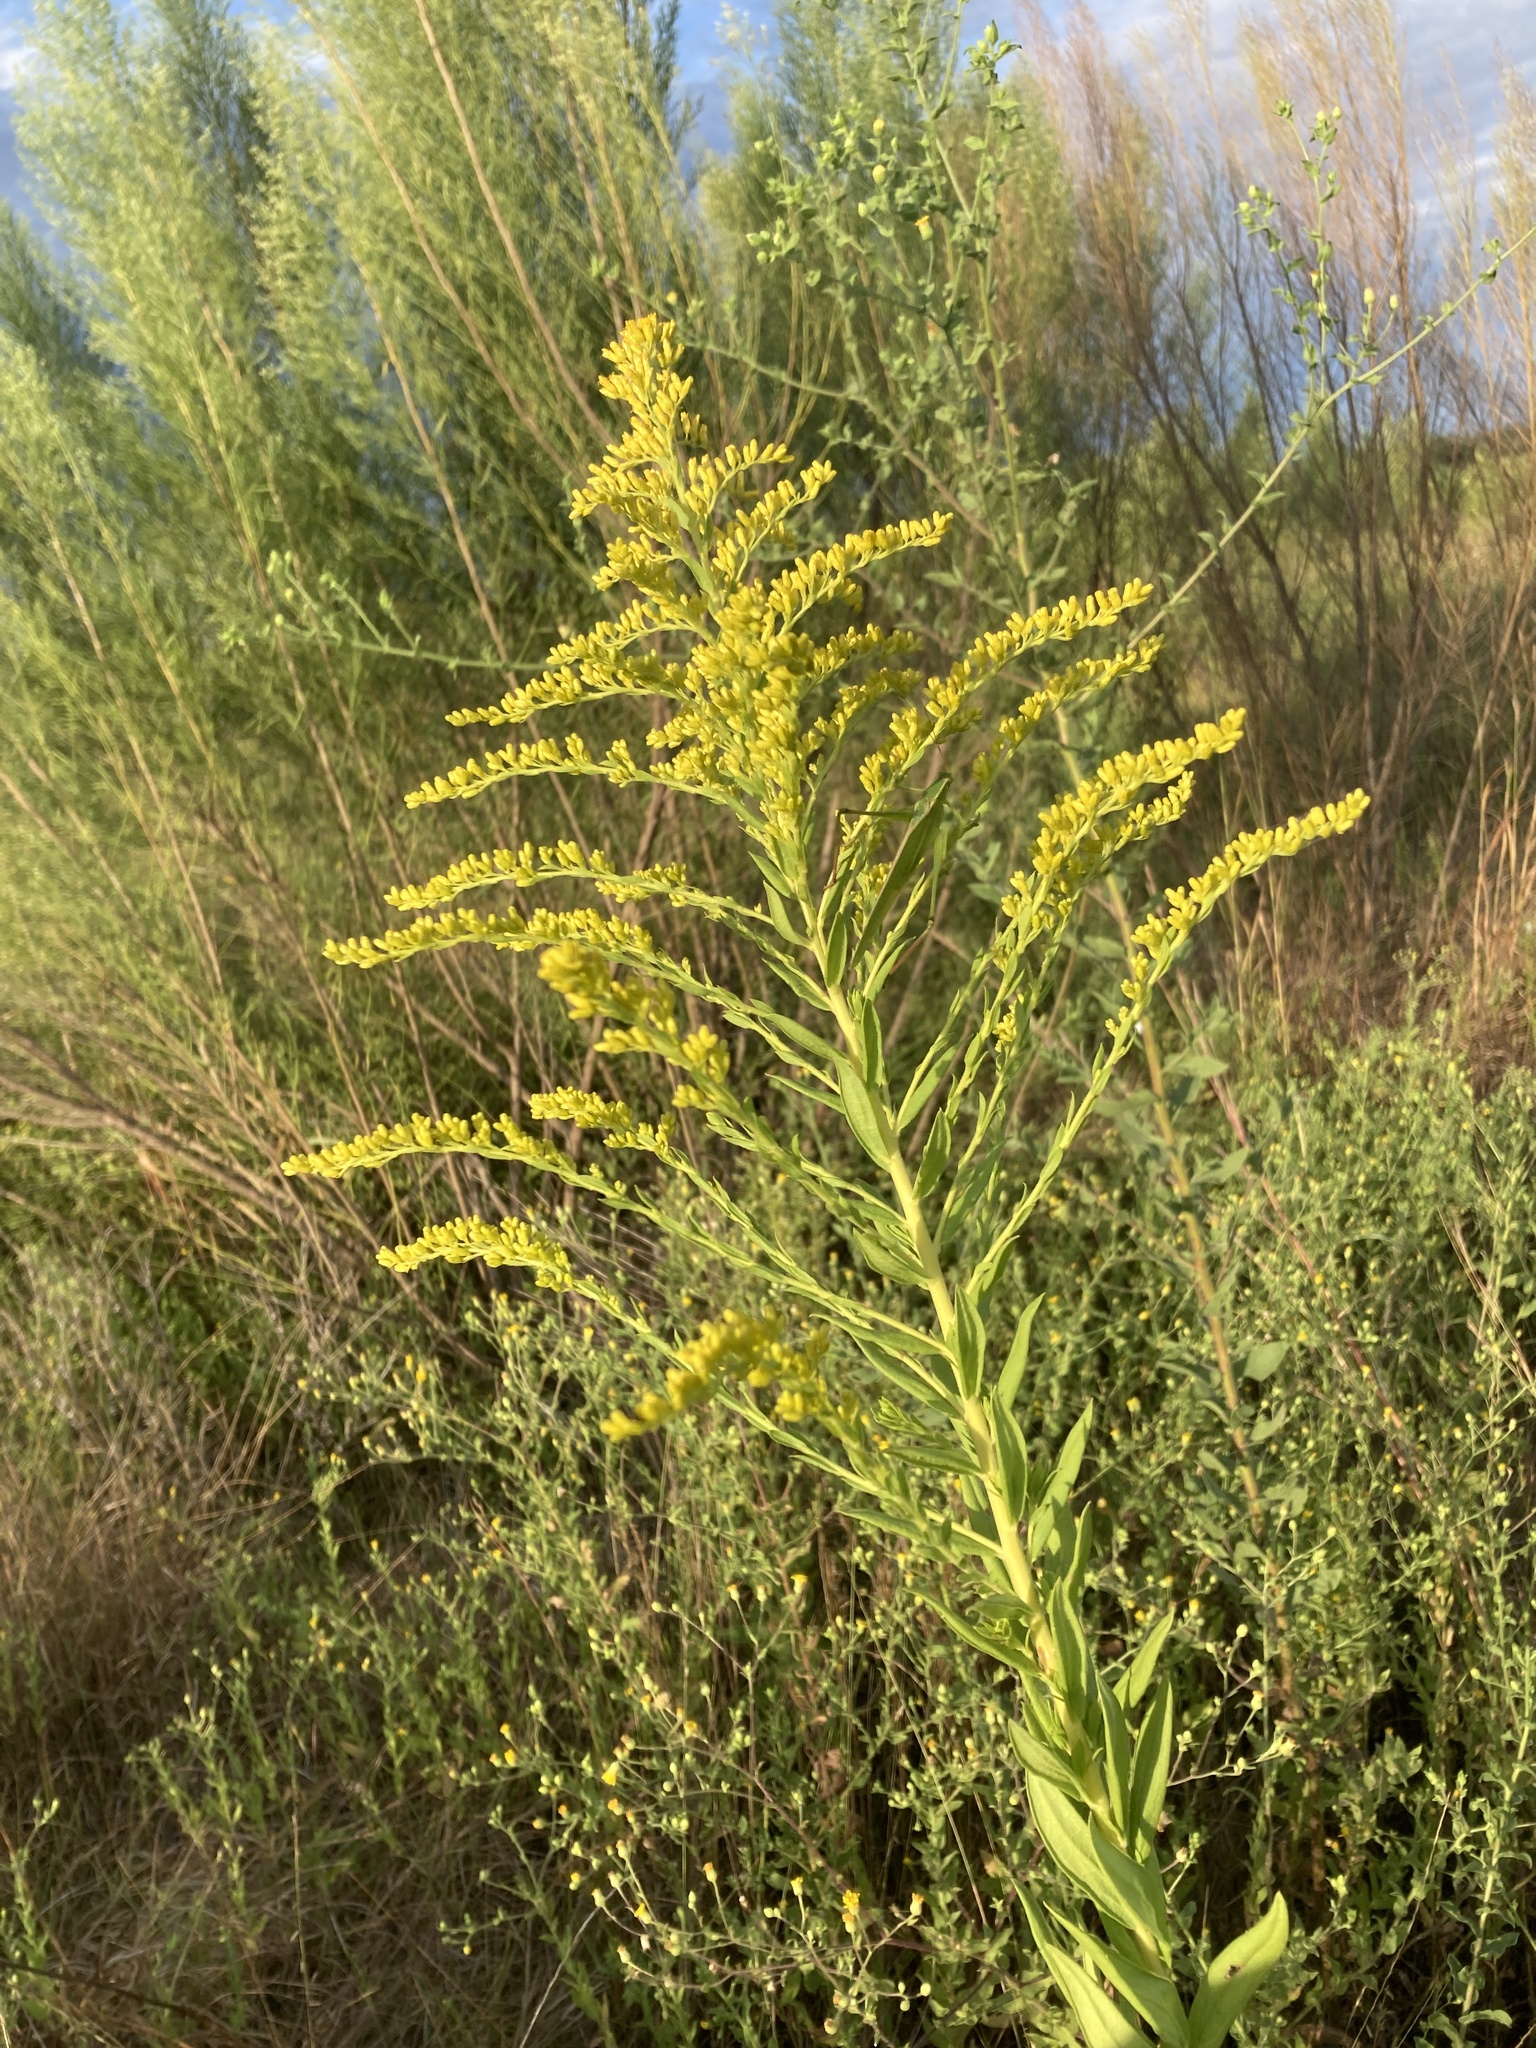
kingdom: Plantae
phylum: Tracheophyta
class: Magnoliopsida
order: Asterales
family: Asteraceae
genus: Solidago
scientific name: Solidago altissima
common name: Late goldenrod
